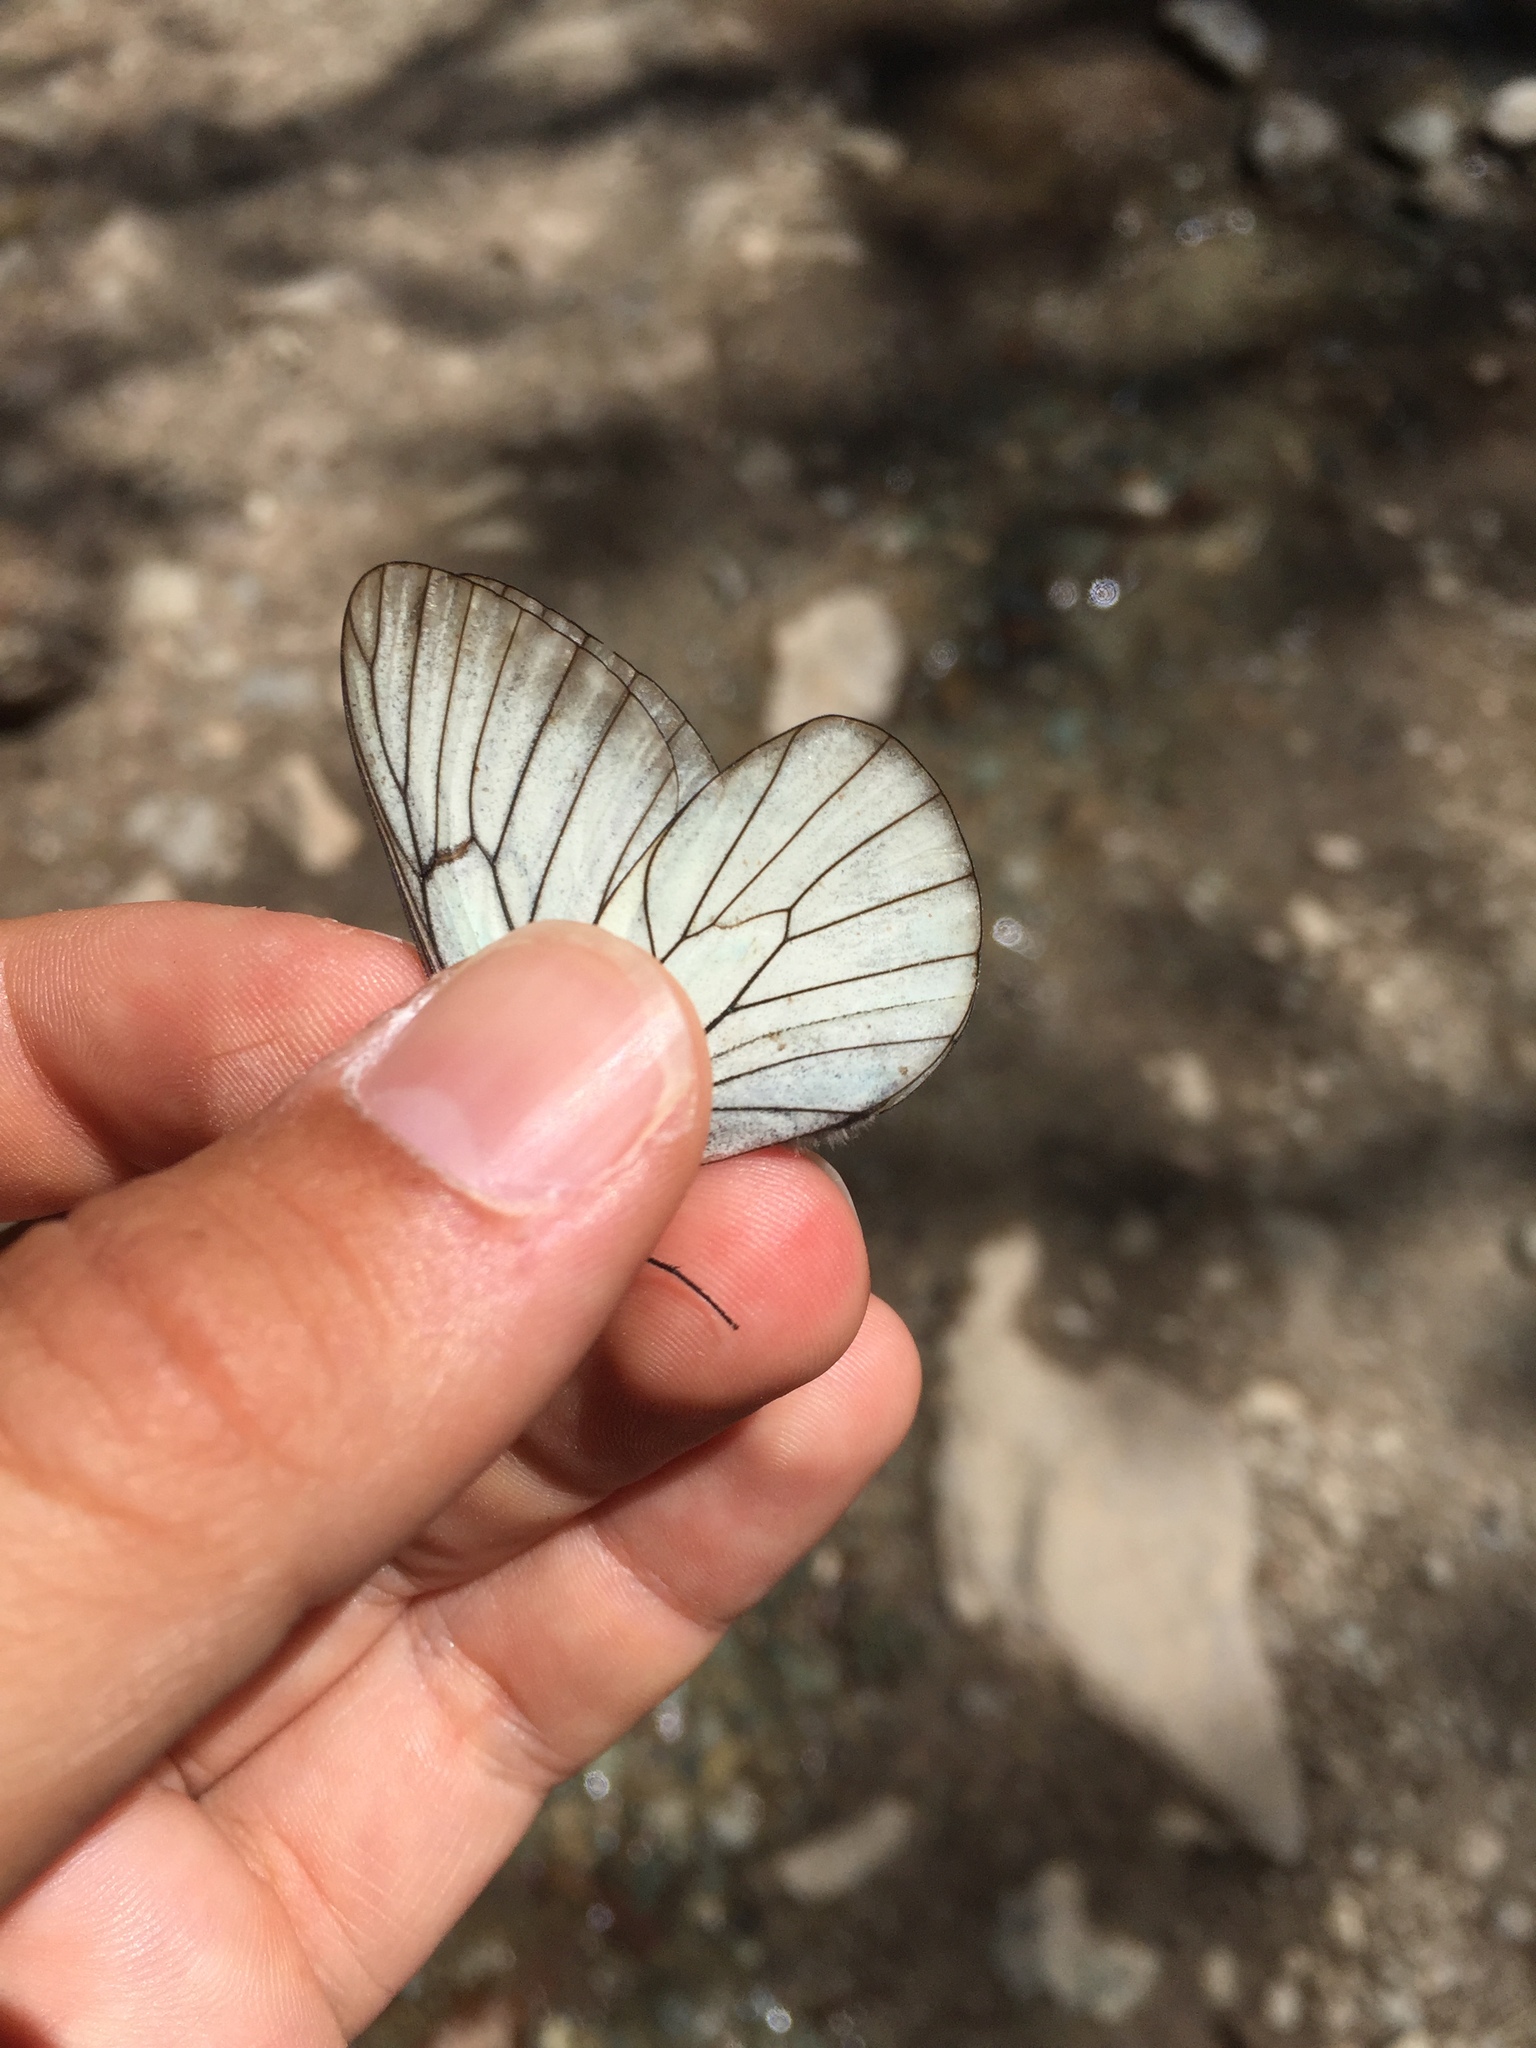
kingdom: Animalia
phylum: Arthropoda
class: Insecta
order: Lepidoptera
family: Pieridae
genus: Aporia
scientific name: Aporia crataegi
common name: Black-veined white
